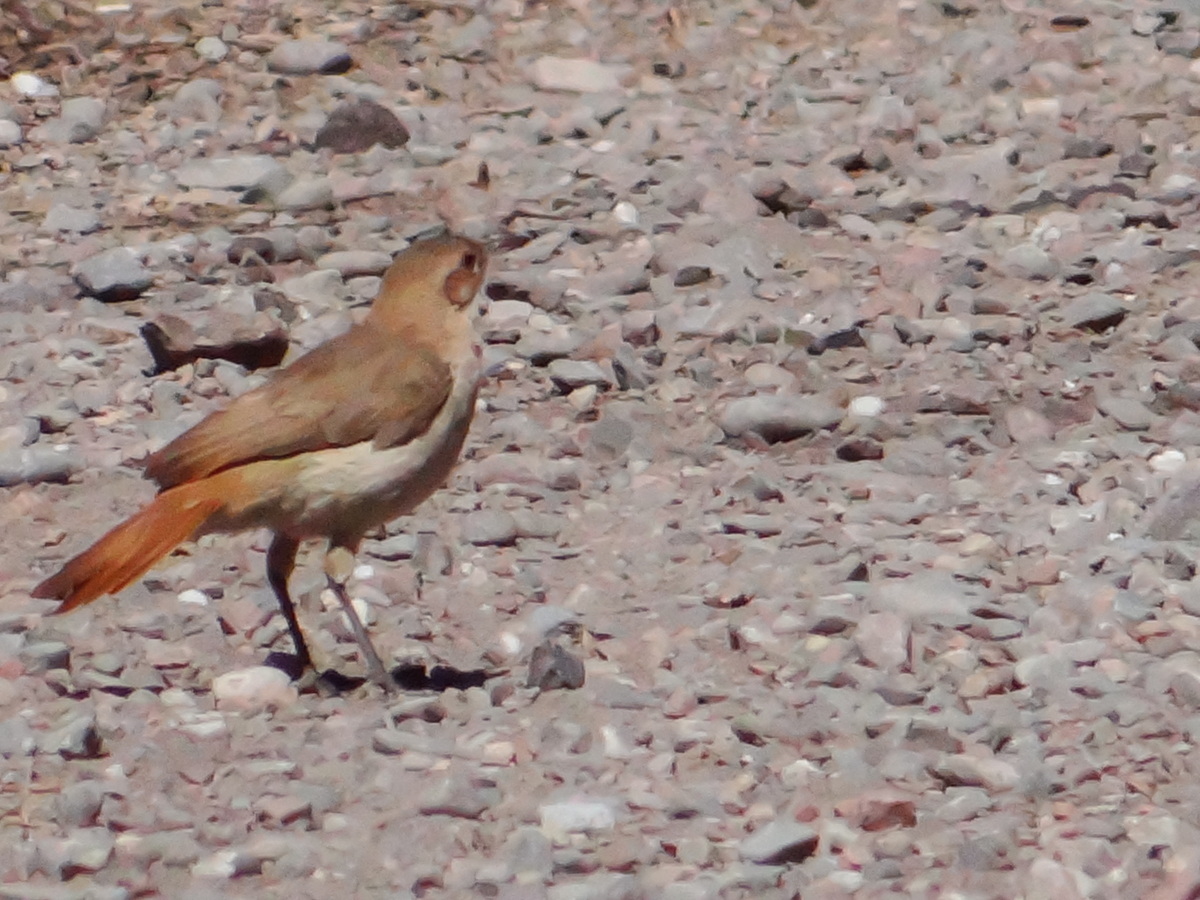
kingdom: Animalia
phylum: Chordata
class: Aves
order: Passeriformes
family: Furnariidae
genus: Furnarius
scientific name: Furnarius rufus
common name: Rufous hornero
